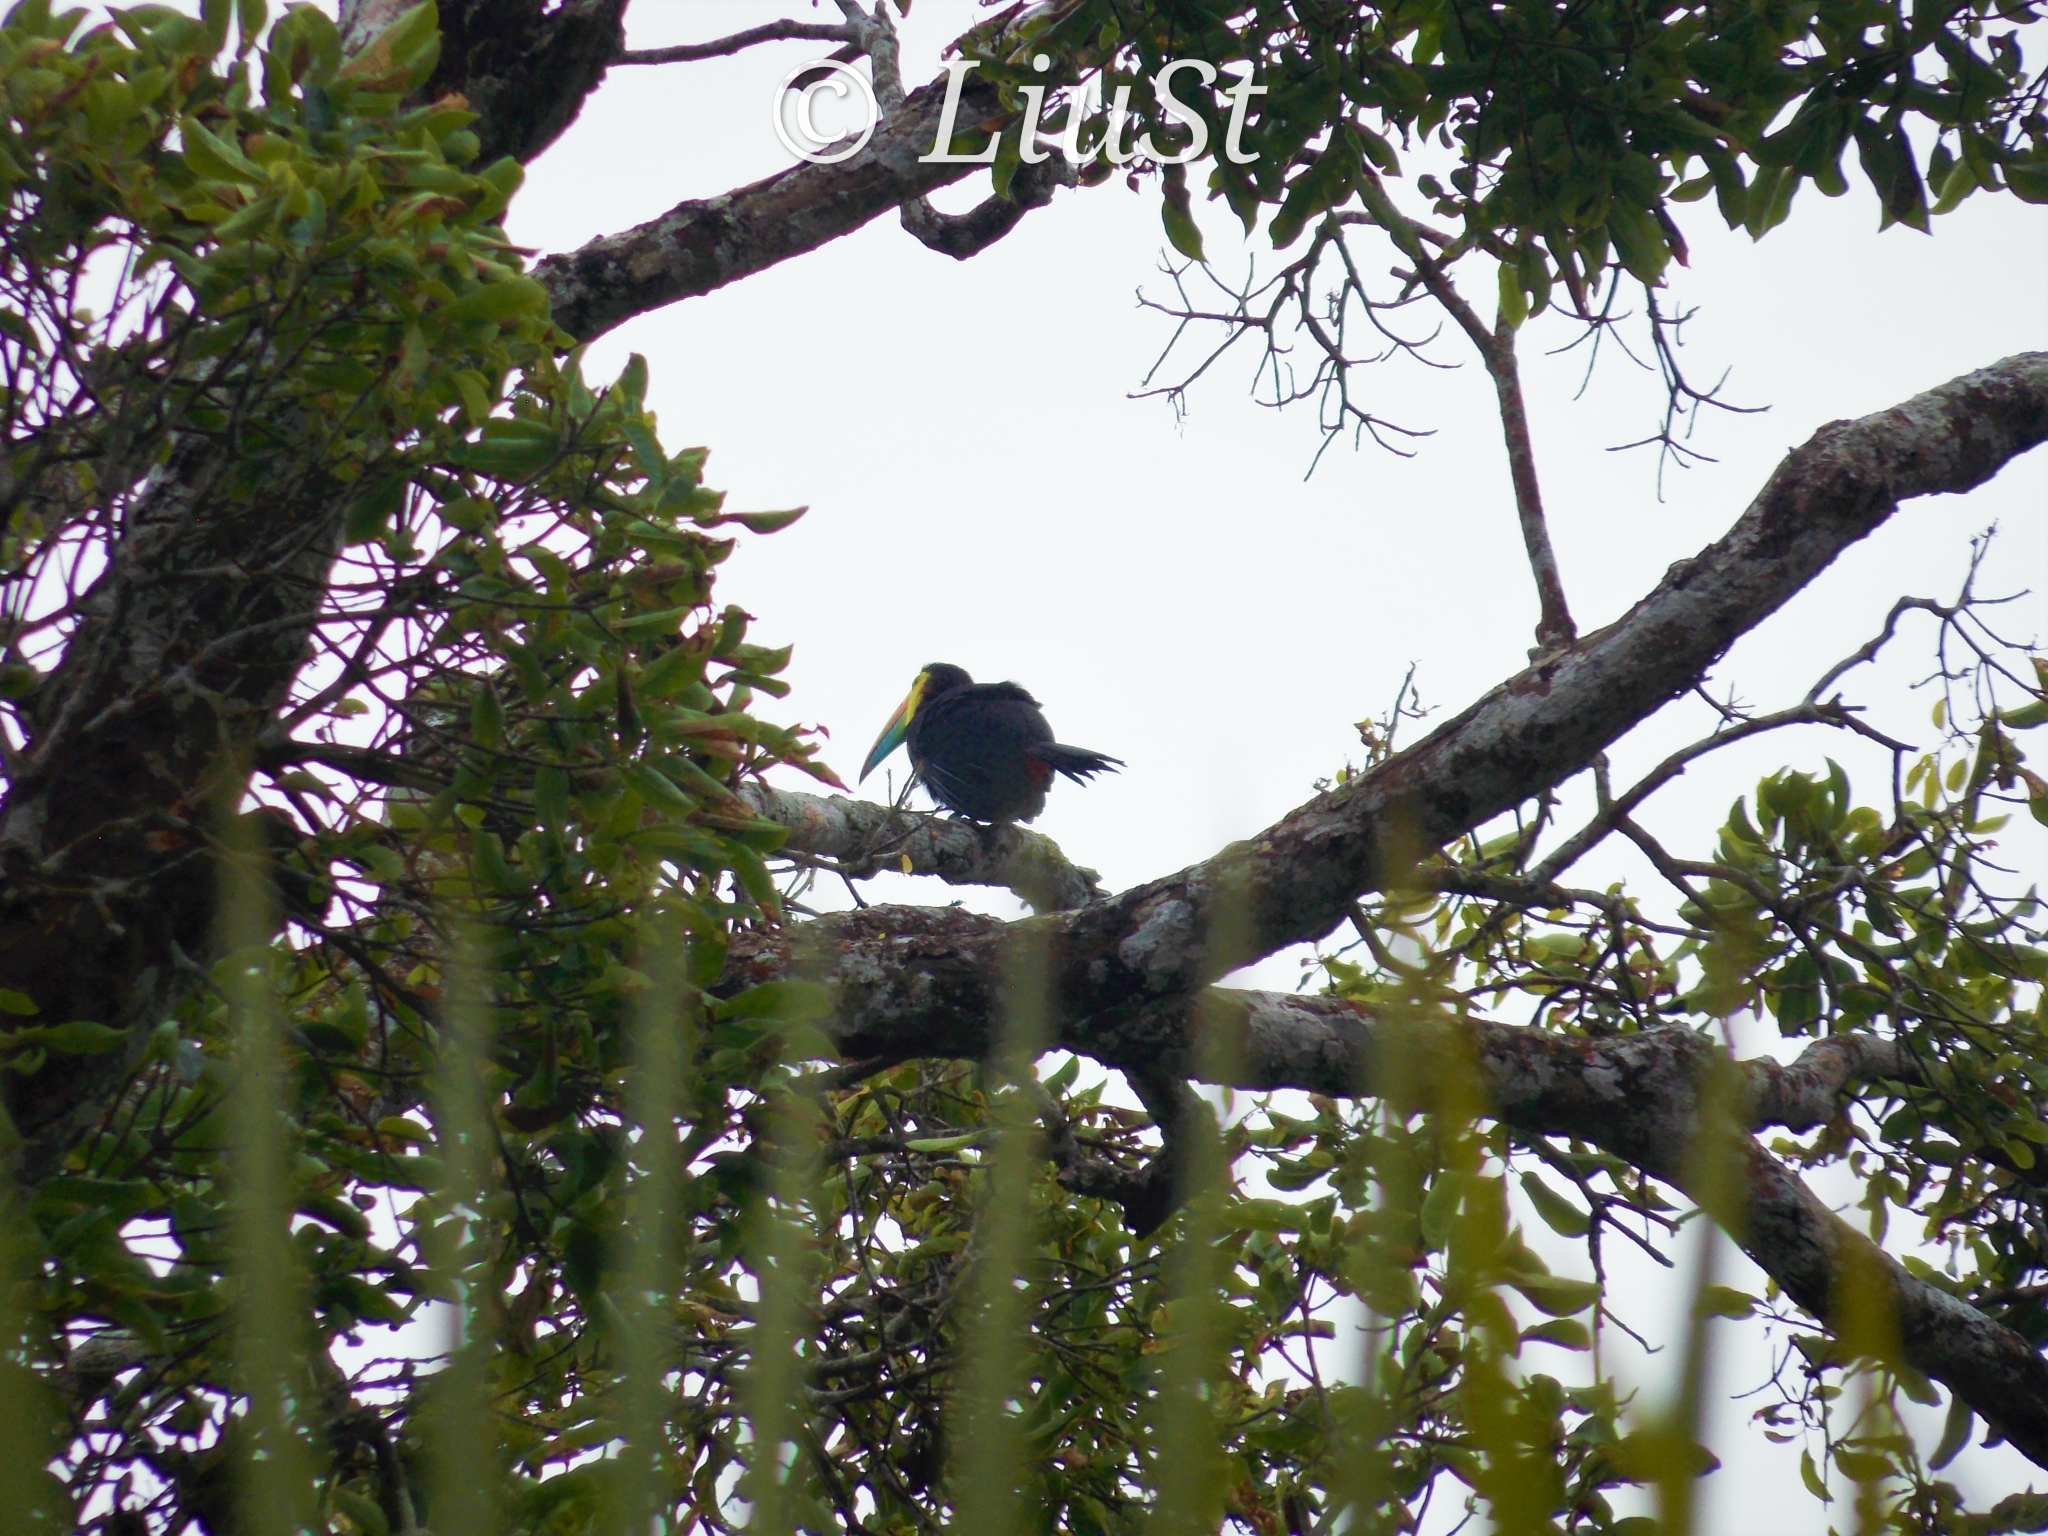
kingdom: Animalia
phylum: Chordata
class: Aves
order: Piciformes
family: Ramphastidae
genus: Ramphastos
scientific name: Ramphastos sulfuratus
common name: Keel-billed toucan
